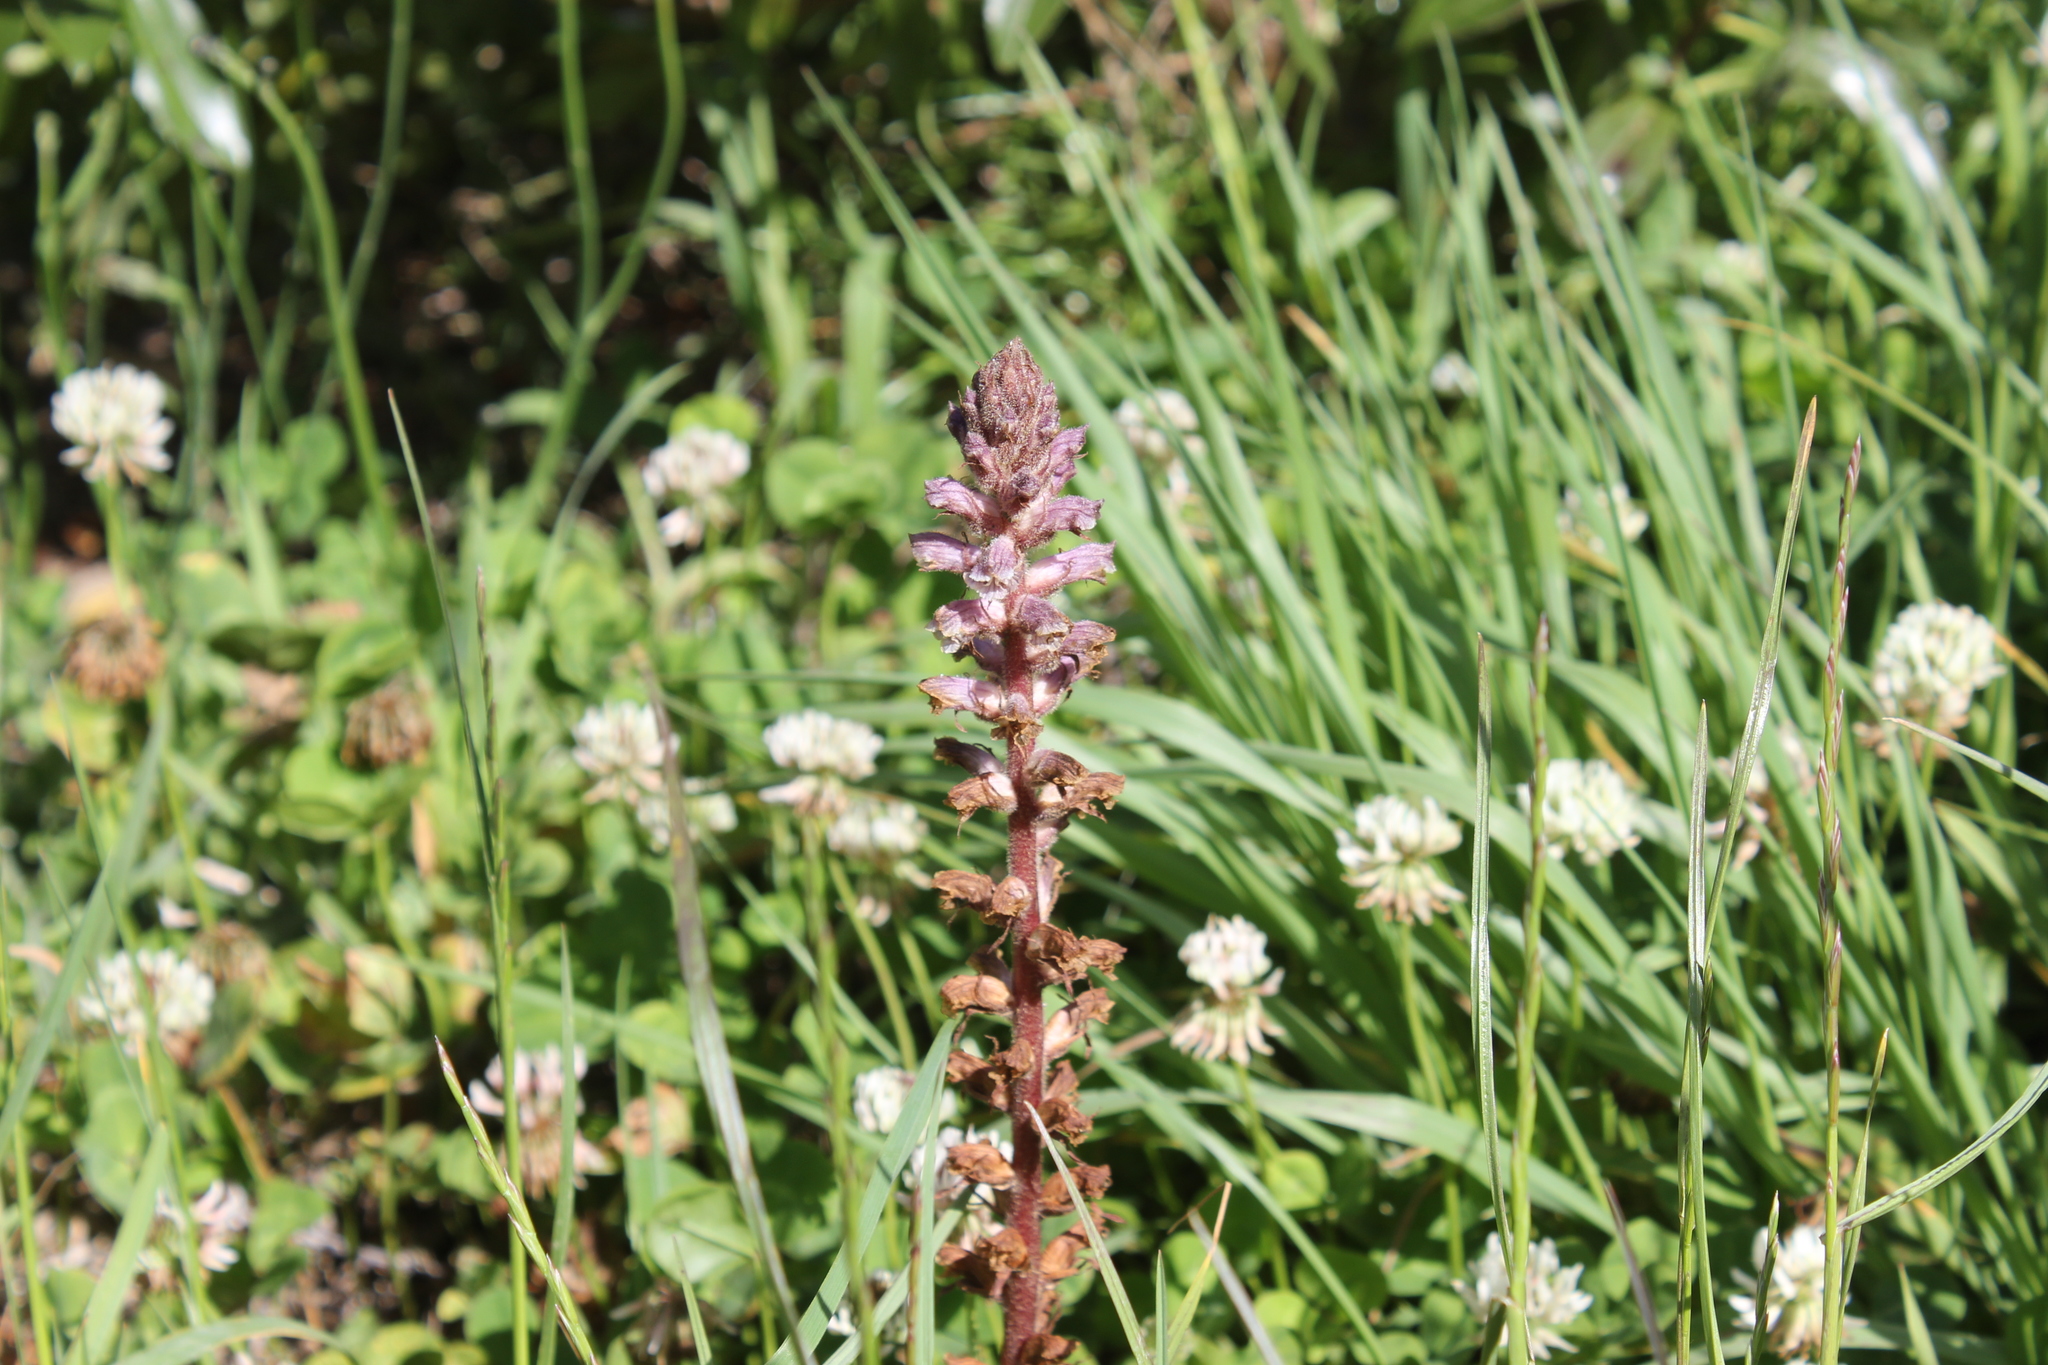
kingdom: Plantae
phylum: Tracheophyta
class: Magnoliopsida
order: Lamiales
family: Orobanchaceae
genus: Orobanche
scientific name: Orobanche minor
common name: Common broomrape
